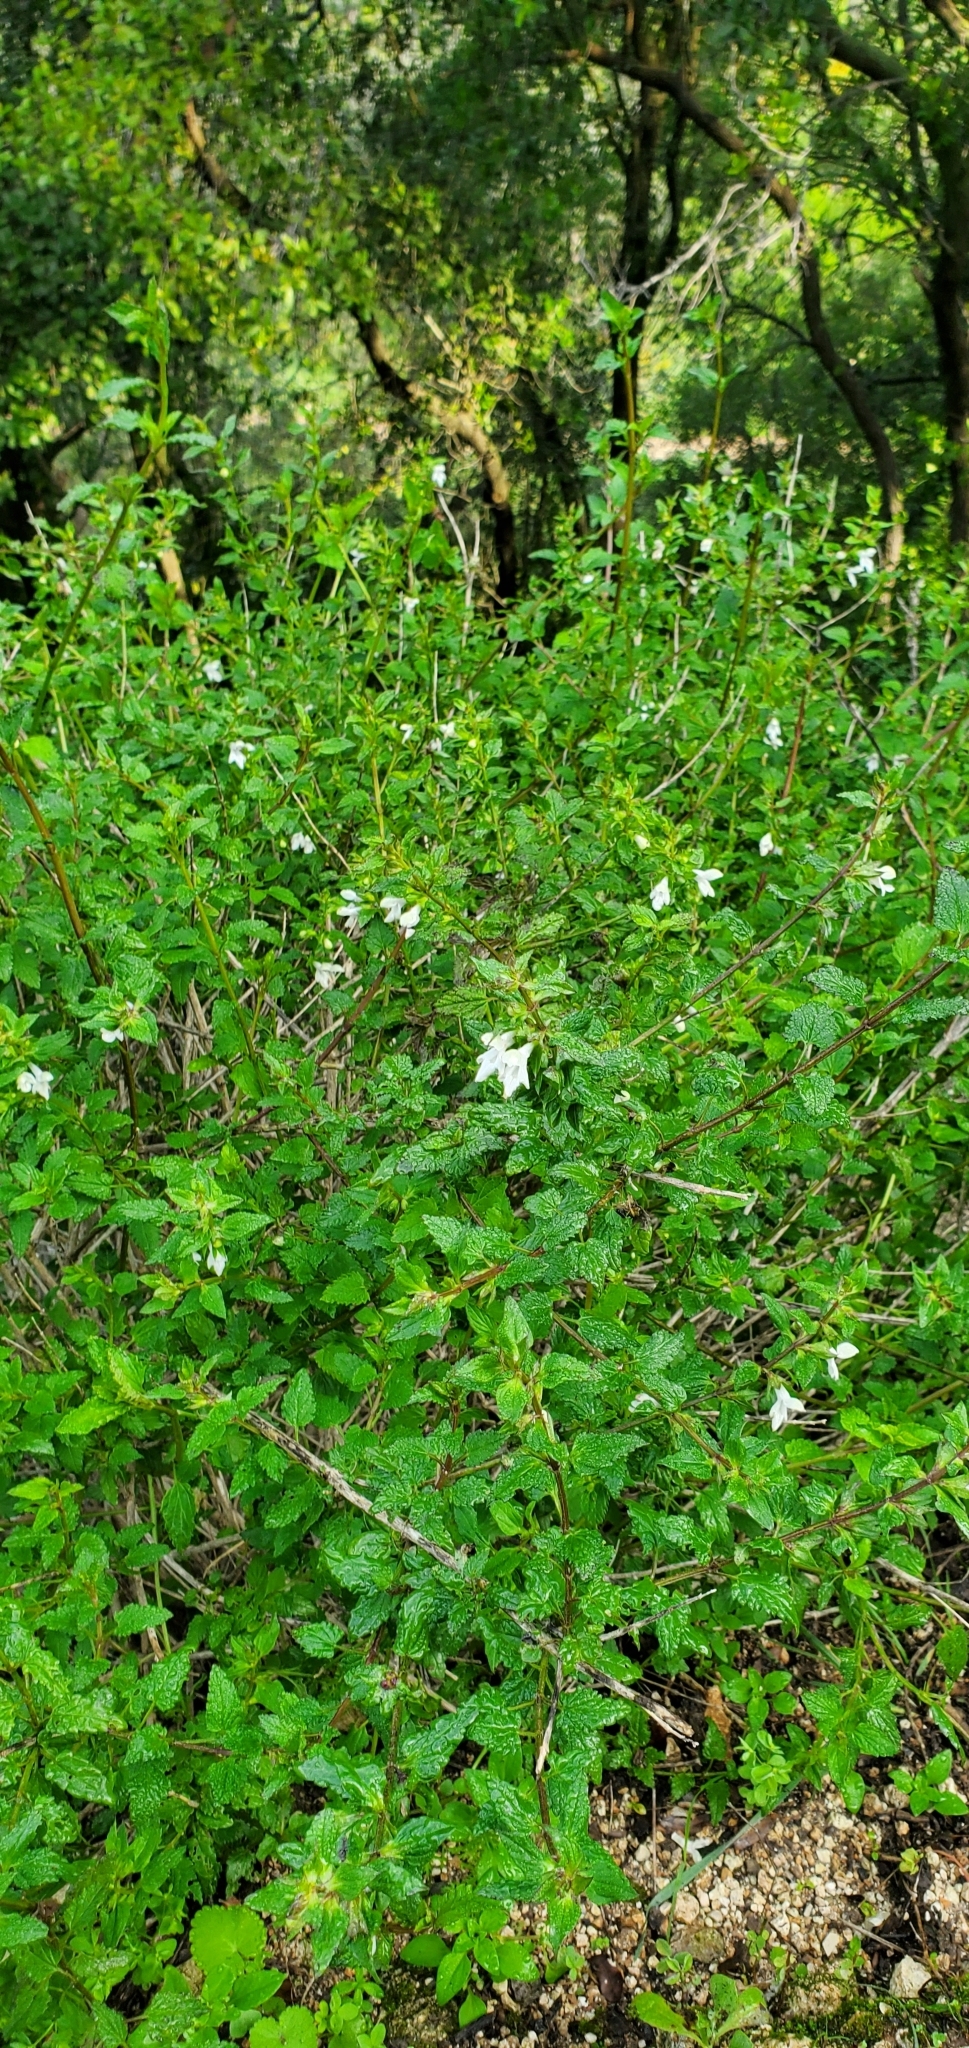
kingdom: Plantae
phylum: Tracheophyta
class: Magnoliopsida
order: Lamiales
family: Lamiaceae
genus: Prasium
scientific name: Prasium majus
